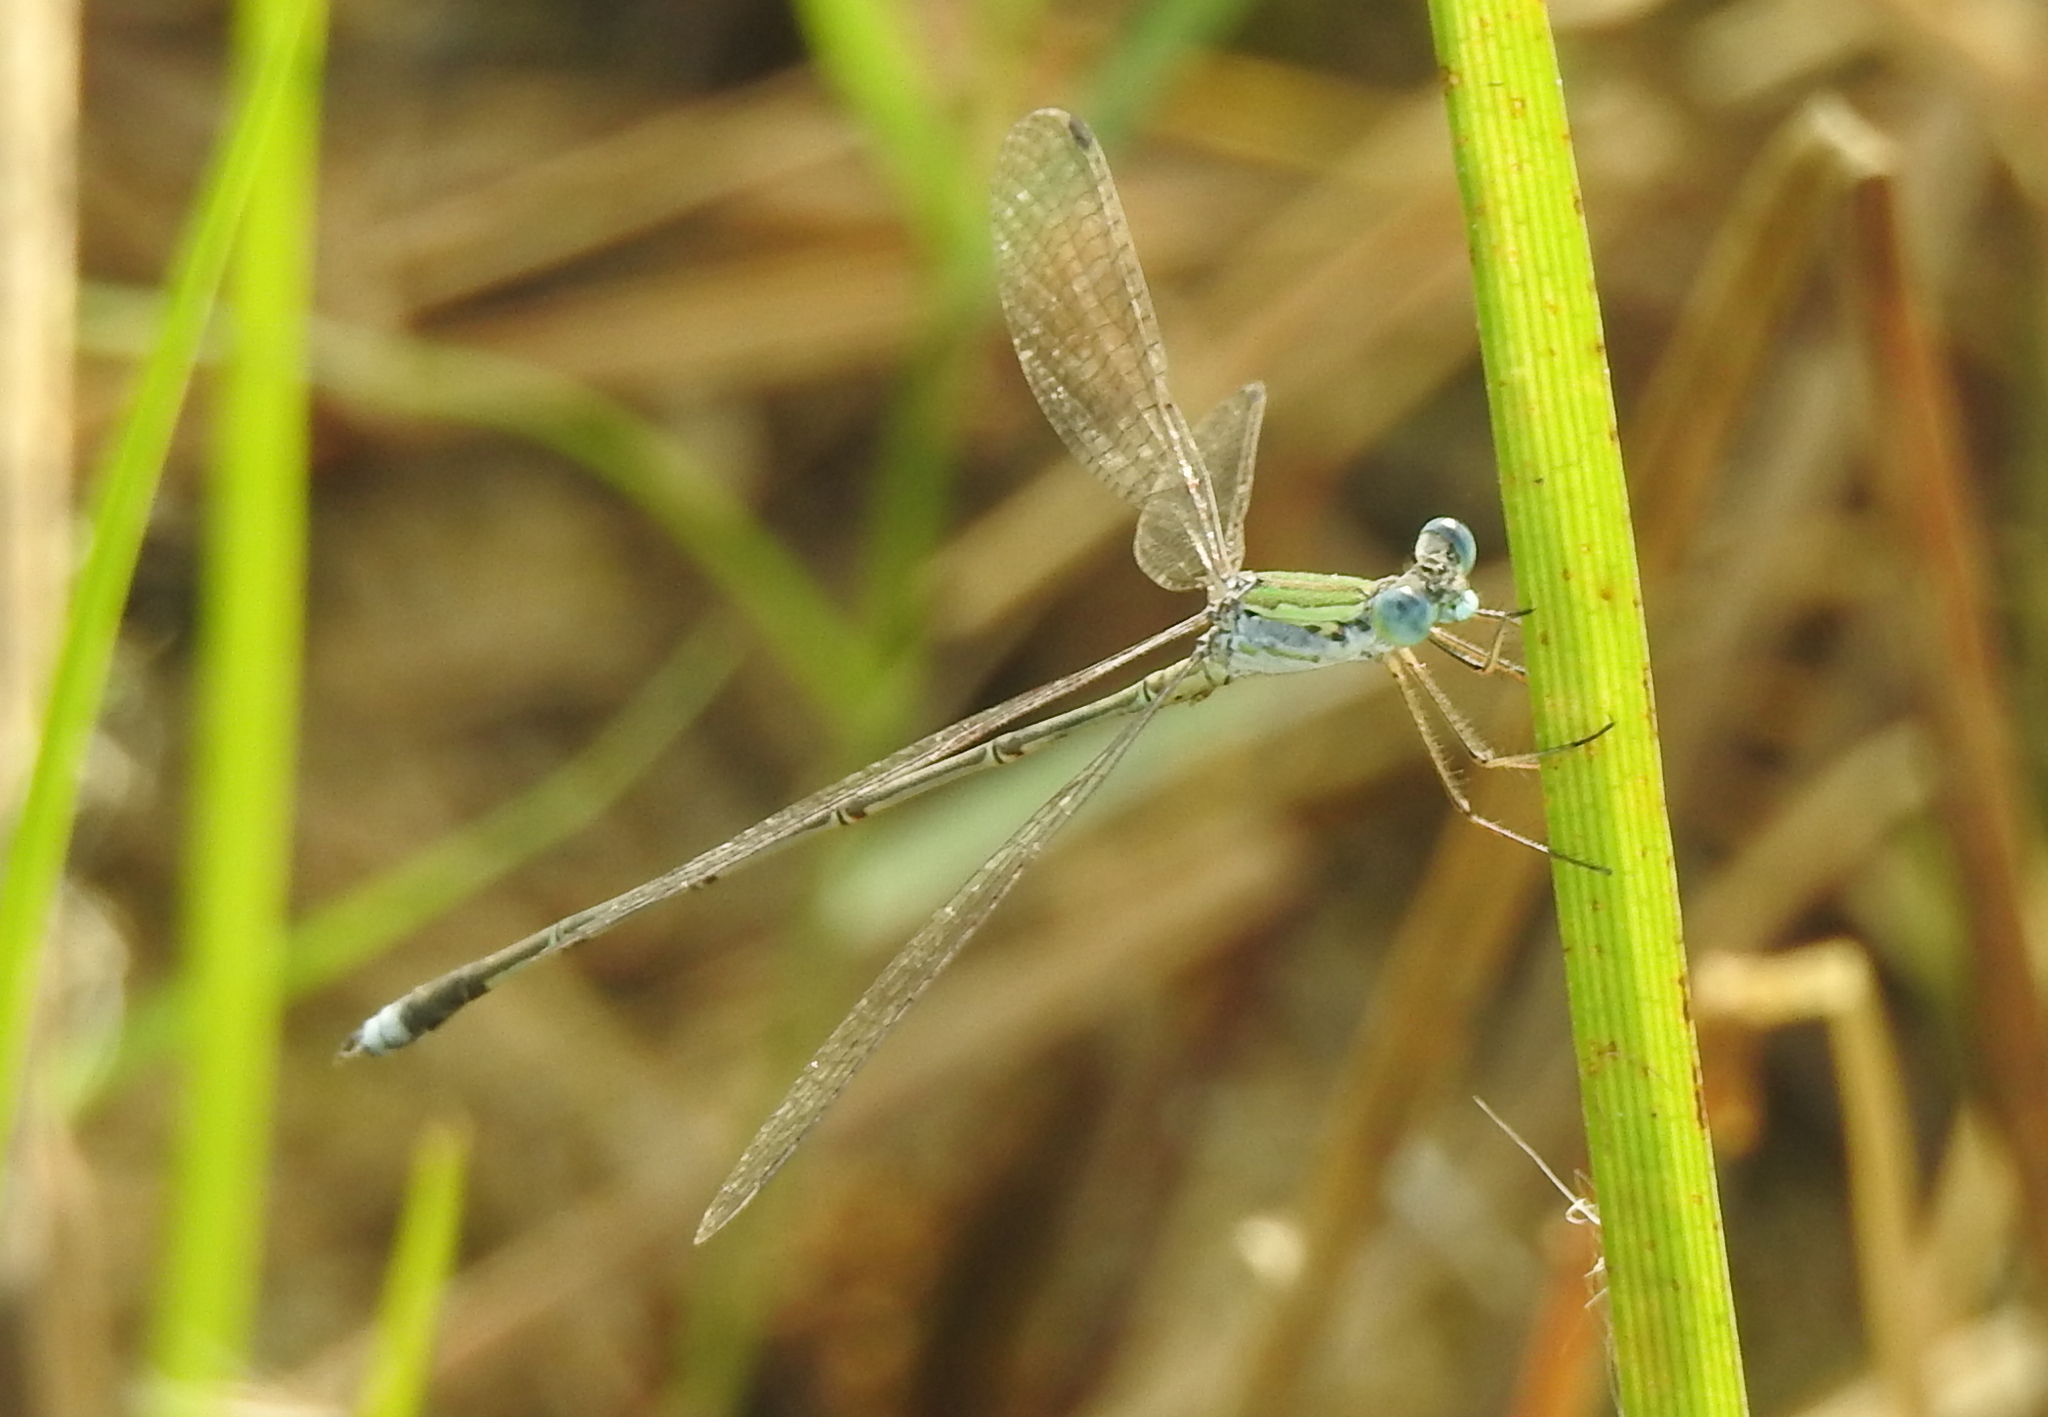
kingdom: Animalia
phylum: Arthropoda
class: Insecta
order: Odonata
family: Lestidae
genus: Lestes
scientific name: Lestes elatus
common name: Emerald spreadwing
